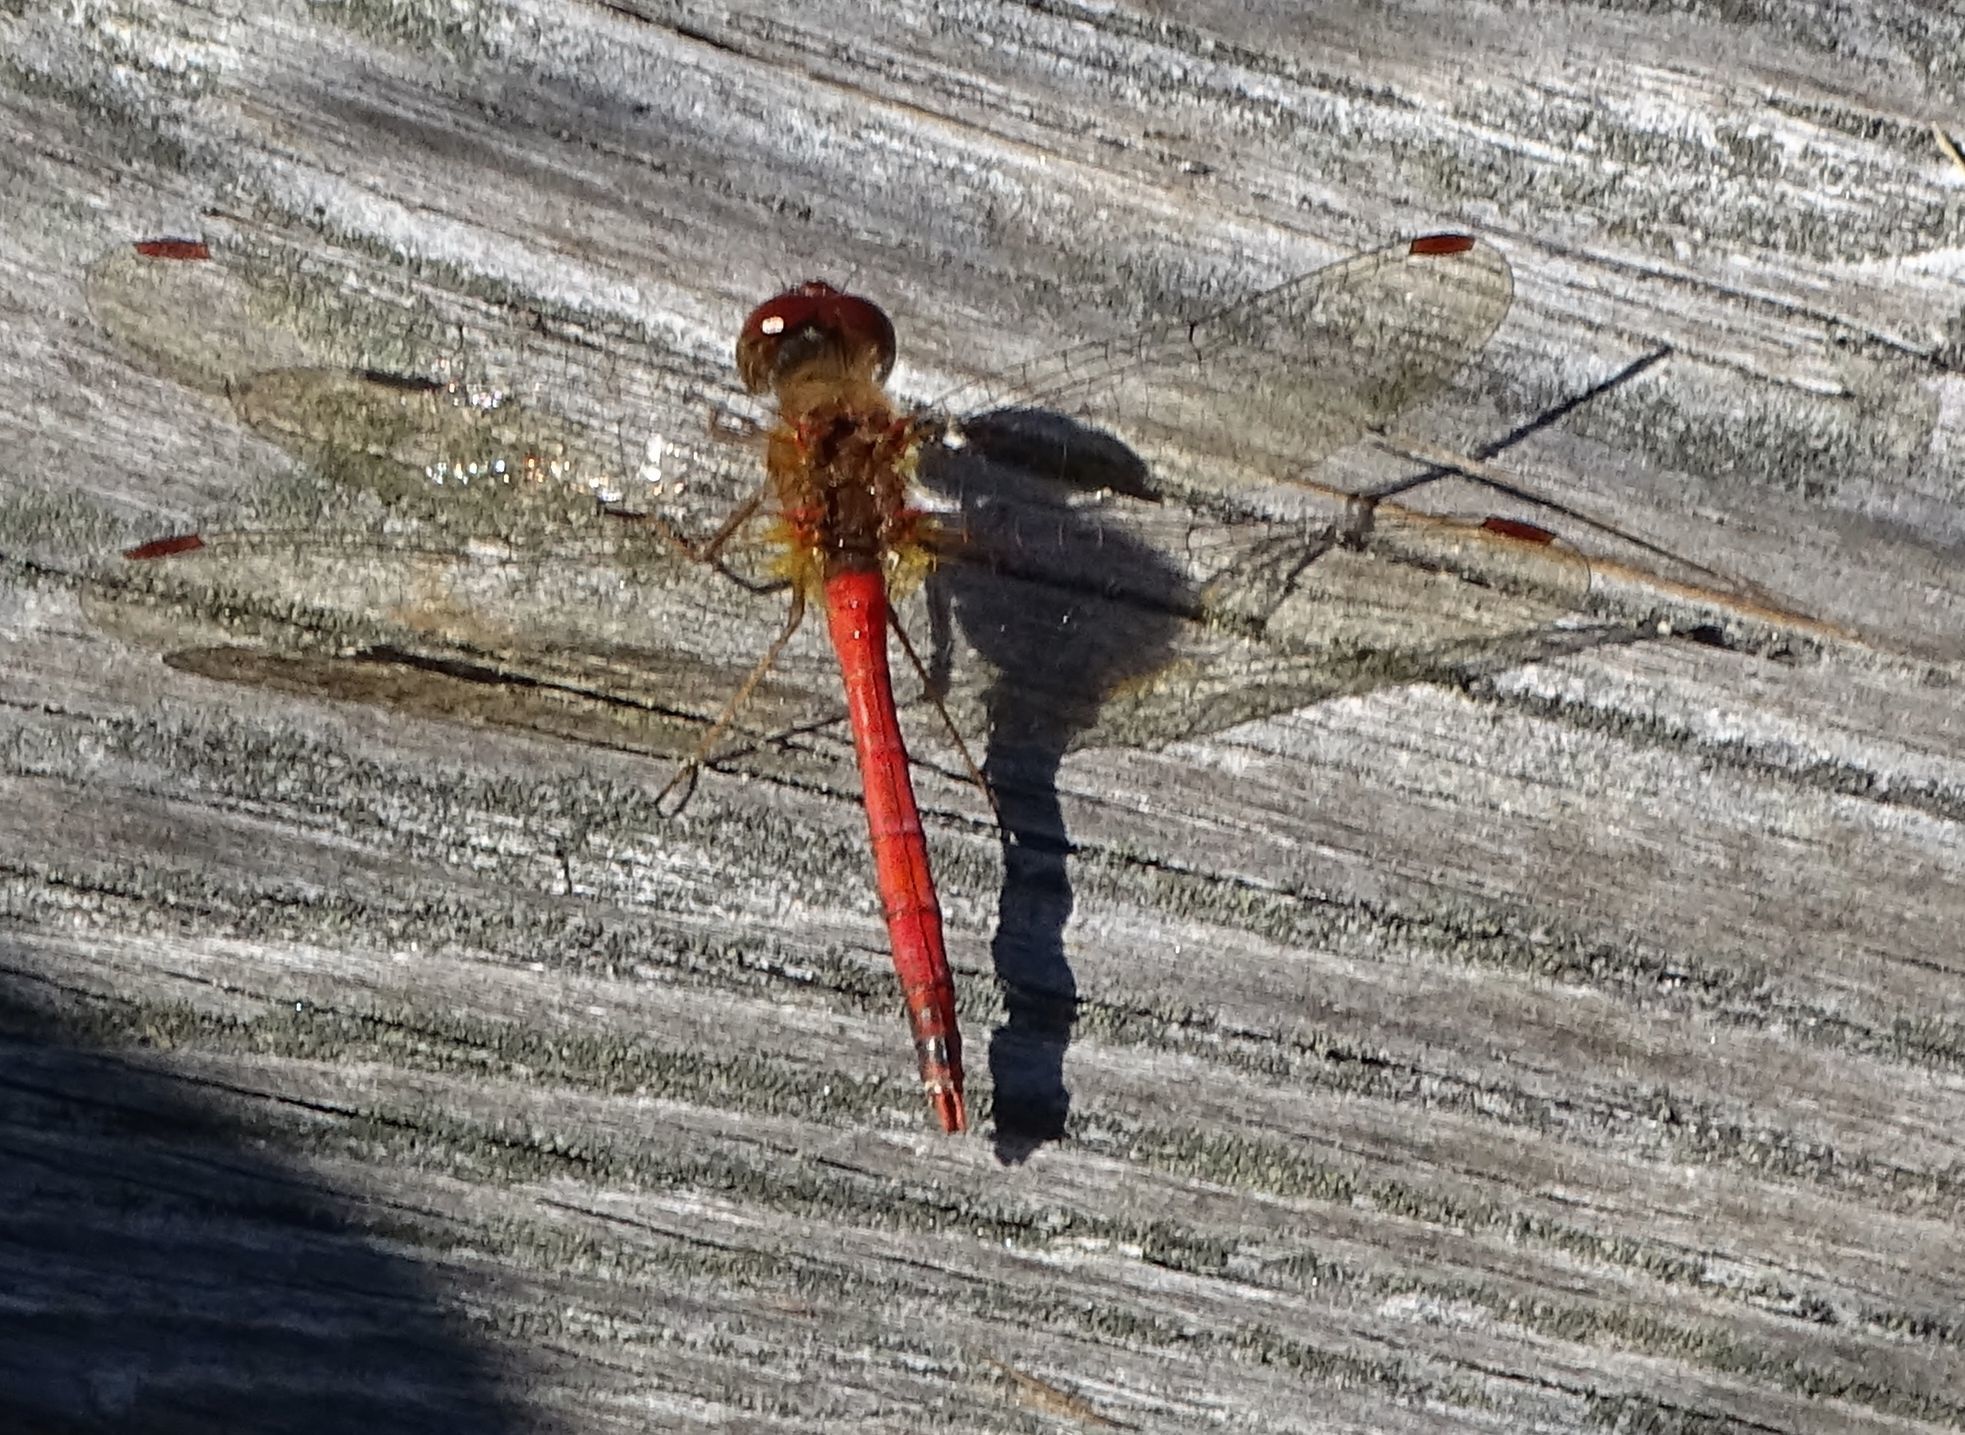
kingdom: Animalia
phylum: Arthropoda
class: Insecta
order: Odonata
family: Libellulidae
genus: Sympetrum
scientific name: Sympetrum vicinum
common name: Autumn meadowhawk
